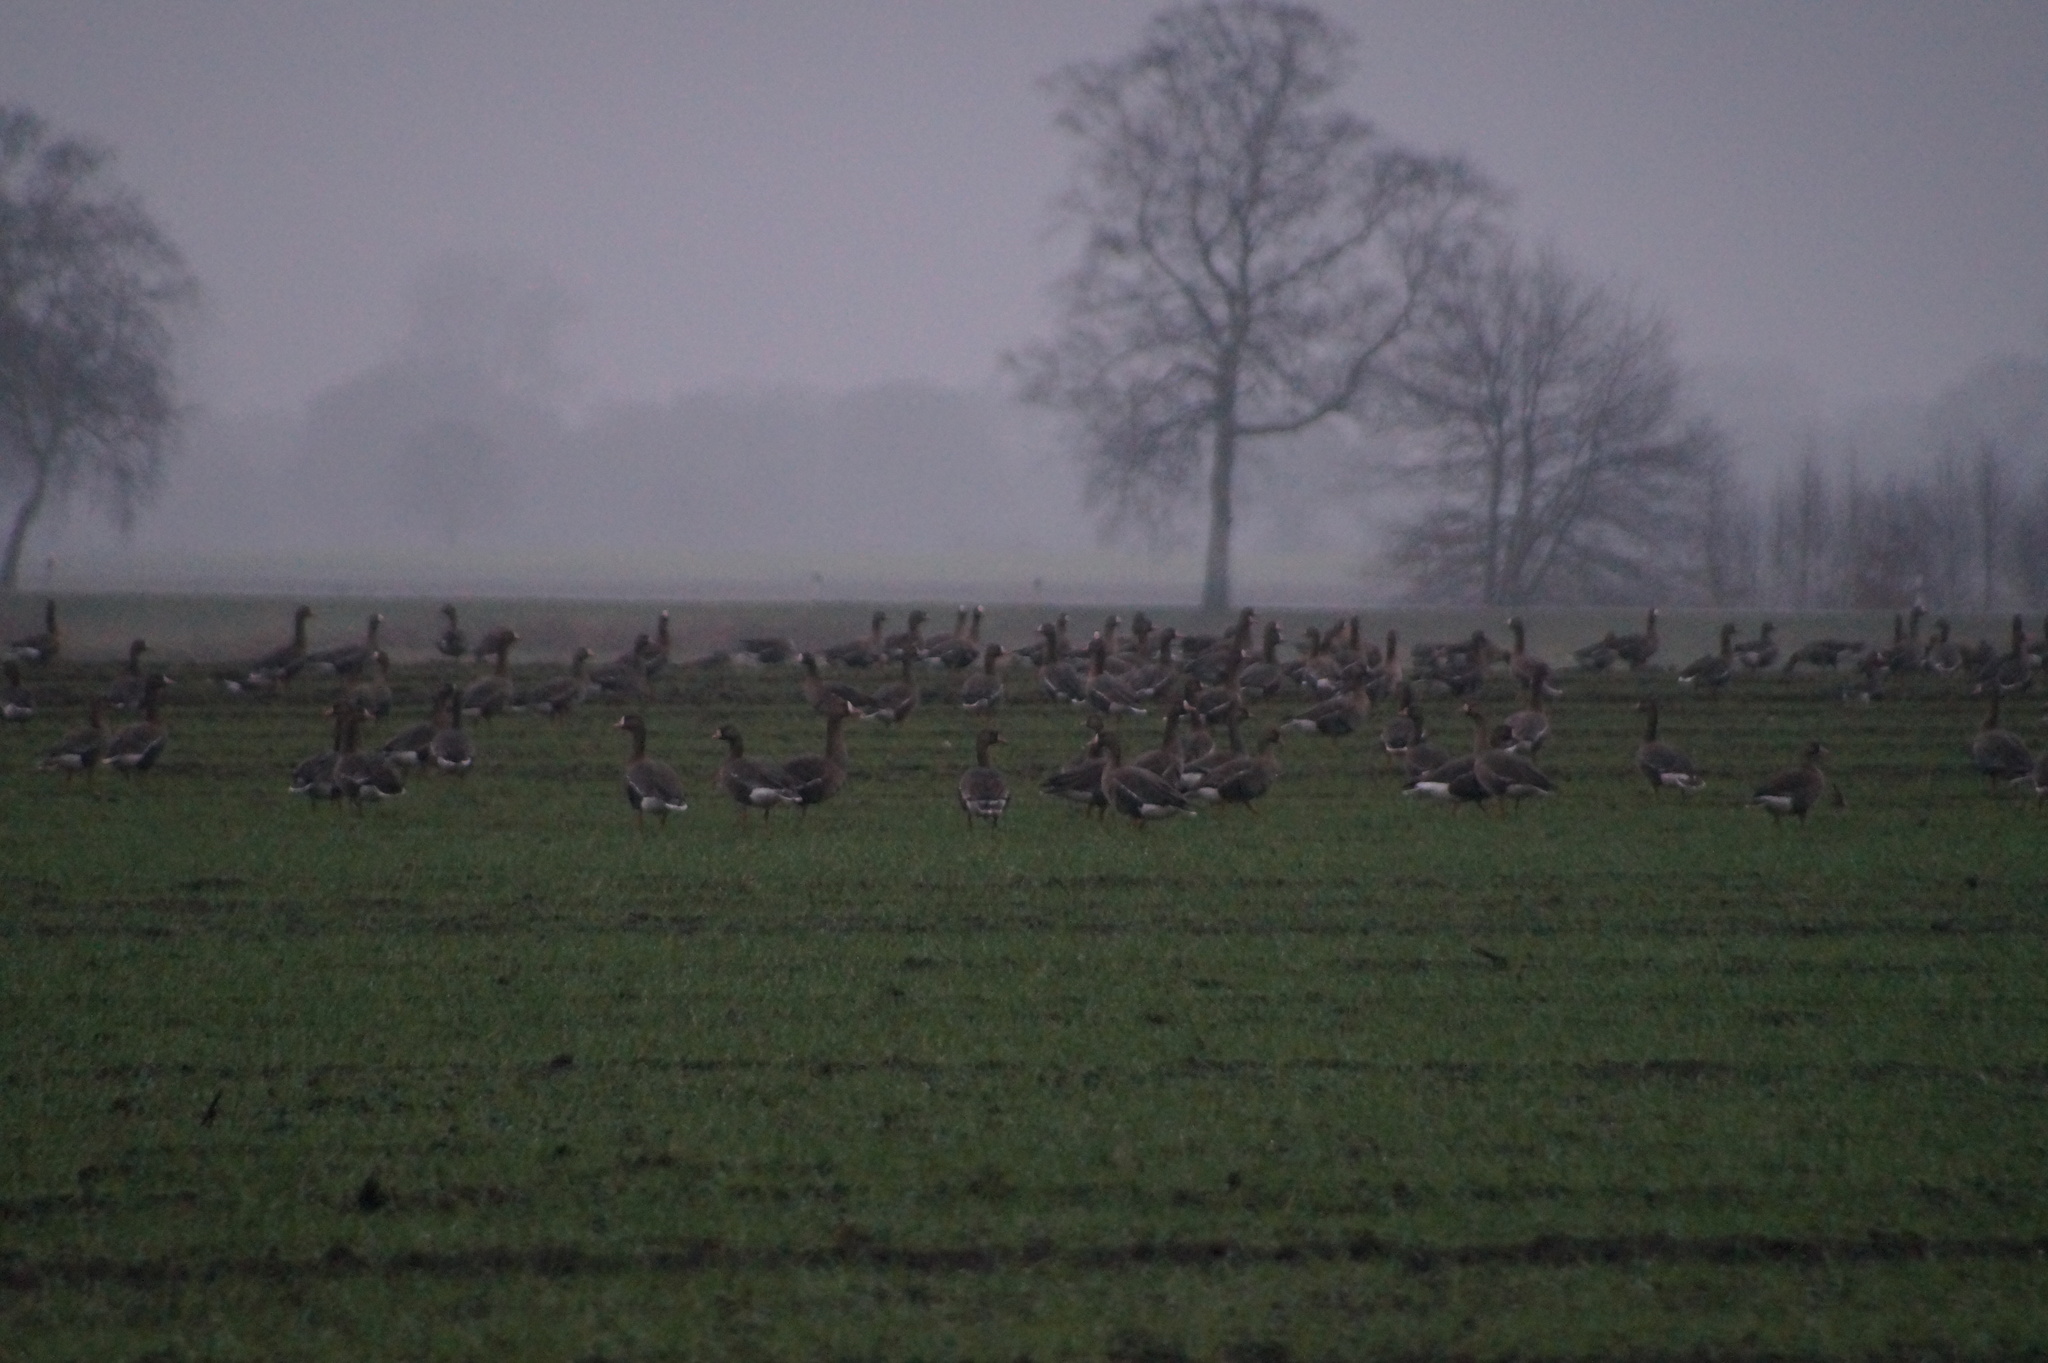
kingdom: Animalia
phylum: Chordata
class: Aves
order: Anseriformes
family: Anatidae
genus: Anser
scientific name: Anser albifrons
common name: Greater white-fronted goose
